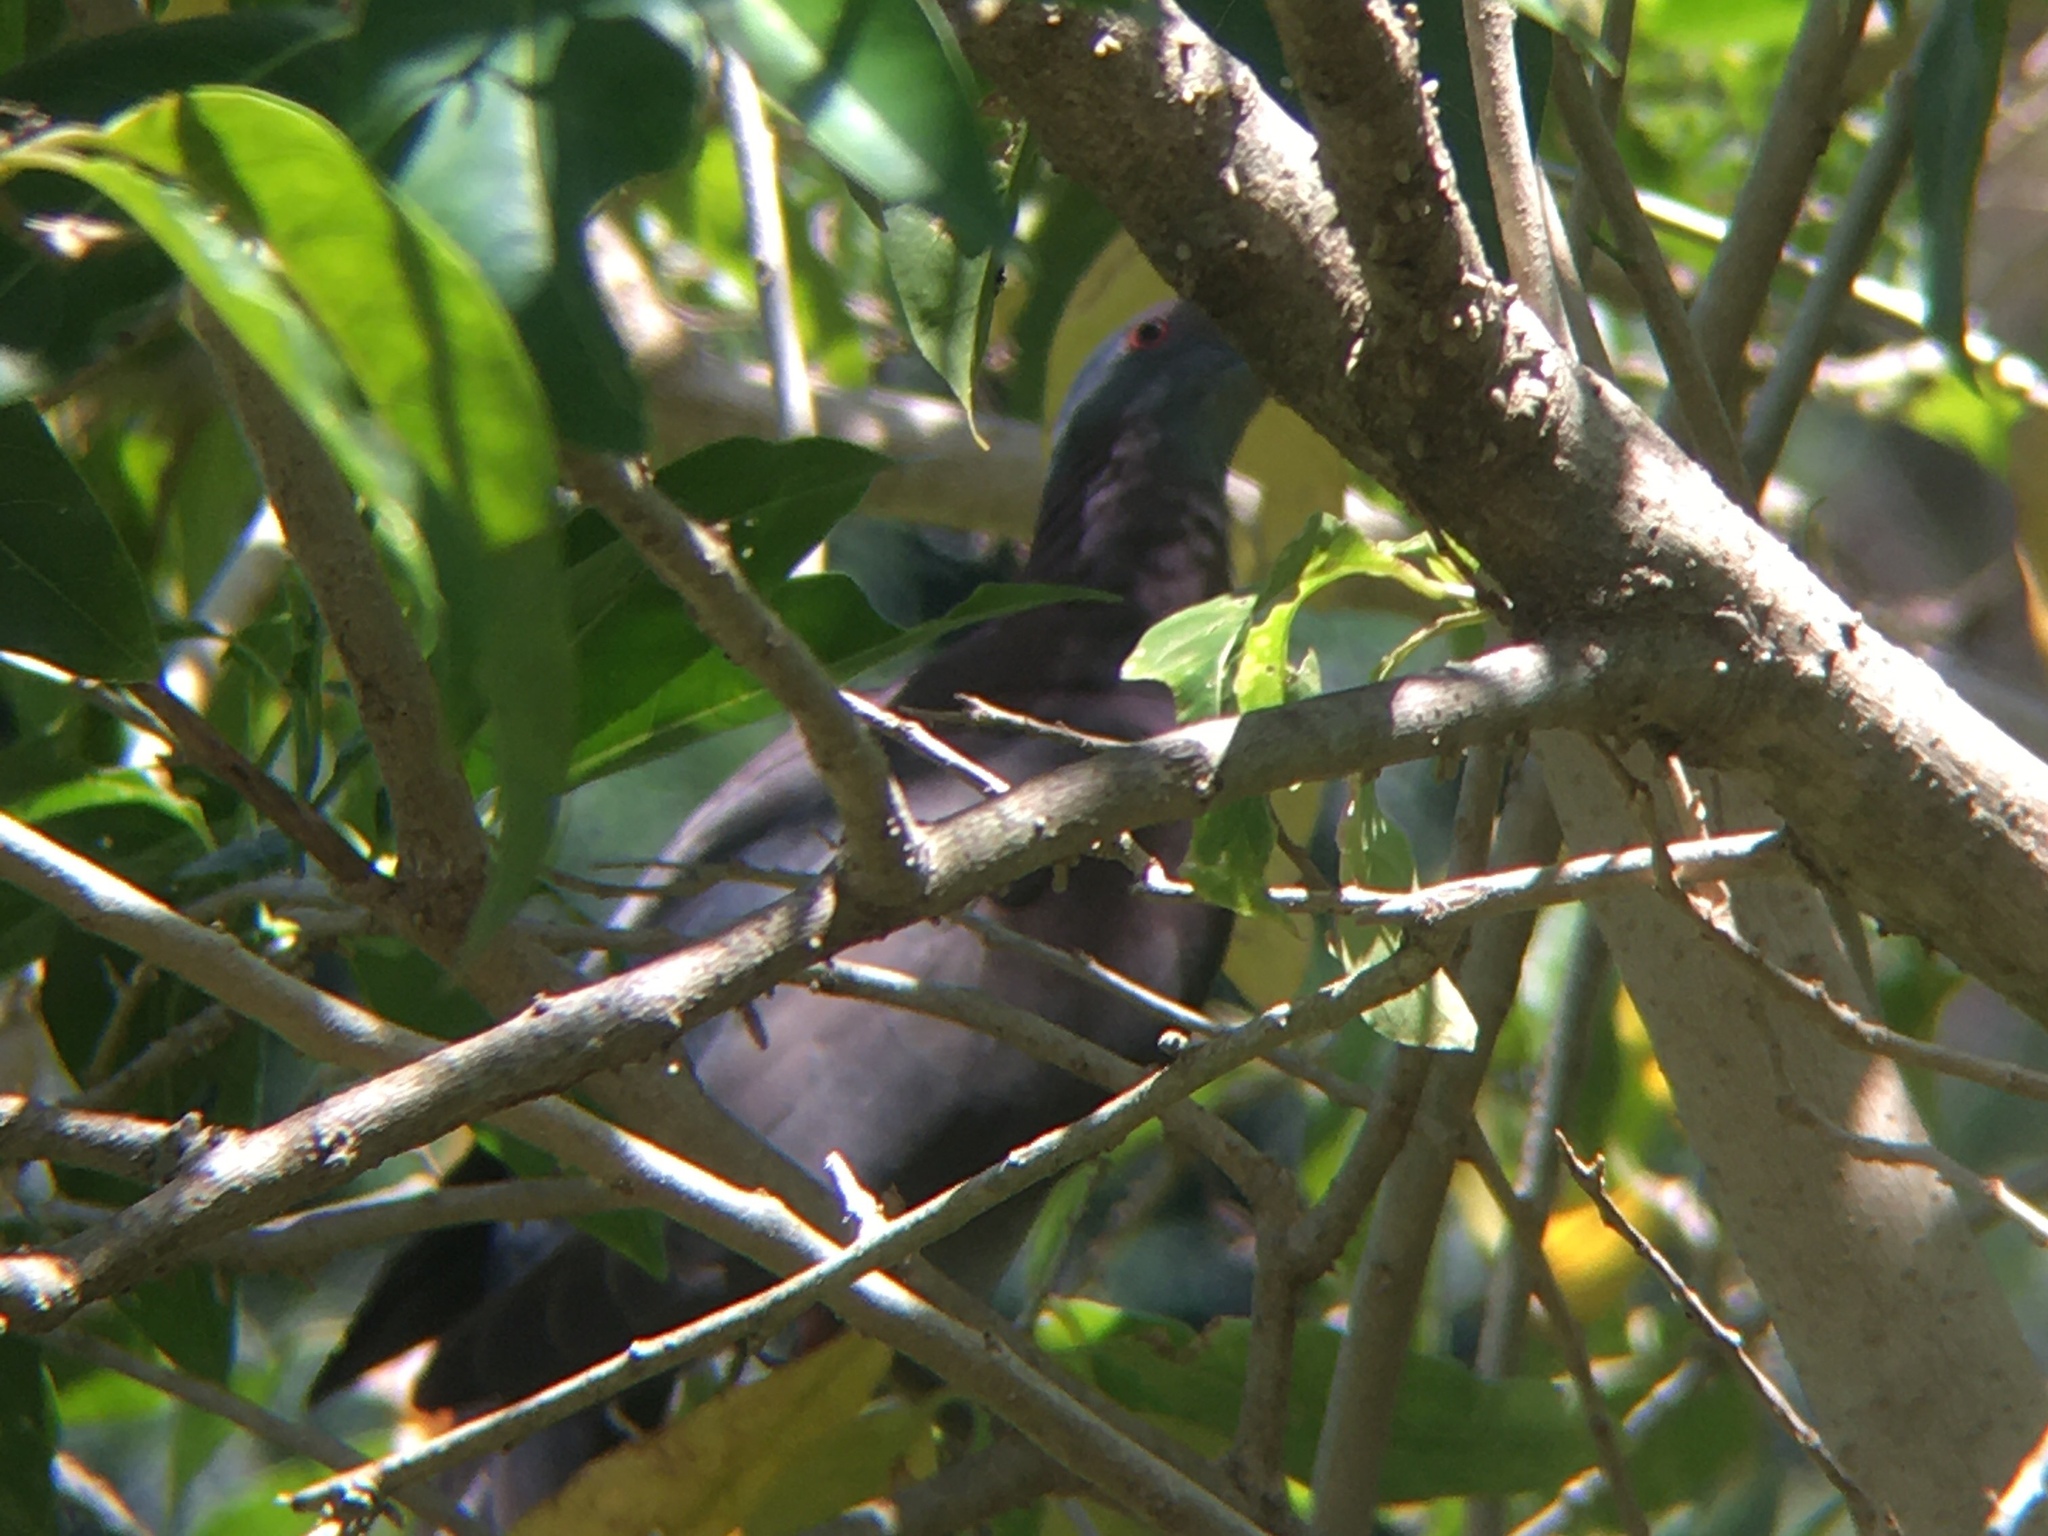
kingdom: Animalia
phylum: Chordata
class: Aves
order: Columbiformes
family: Columbidae
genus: Patagioenas
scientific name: Patagioenas cayennensis
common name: Pale-vented pigeon
